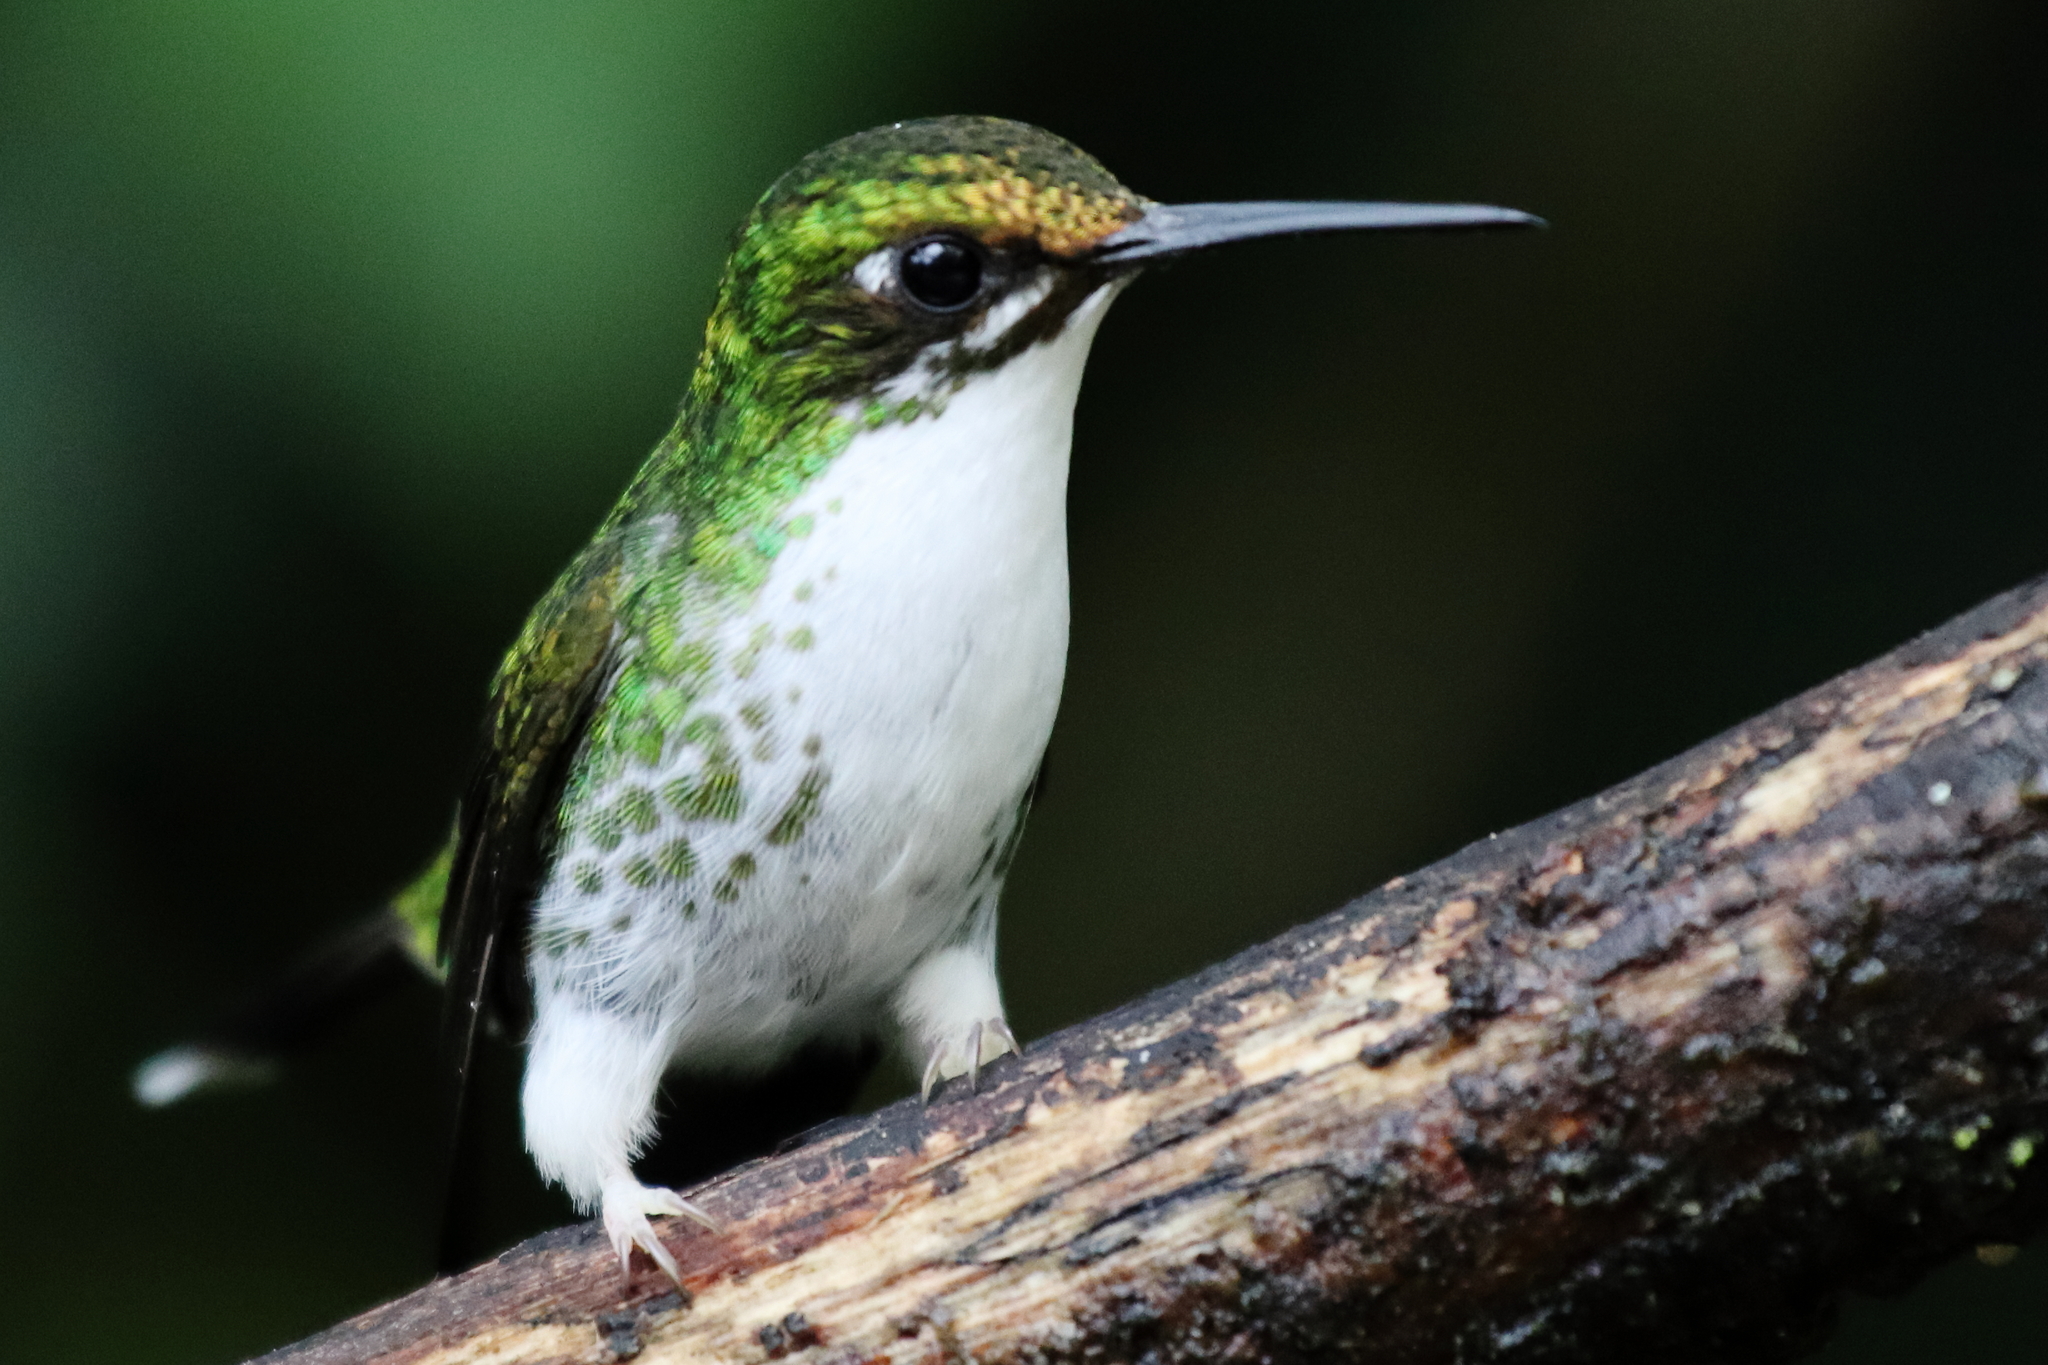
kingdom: Animalia
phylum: Chordata
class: Aves
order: Apodiformes
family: Trochilidae
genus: Ocreatus
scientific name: Ocreatus underwoodii
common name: Booted racket-tail
